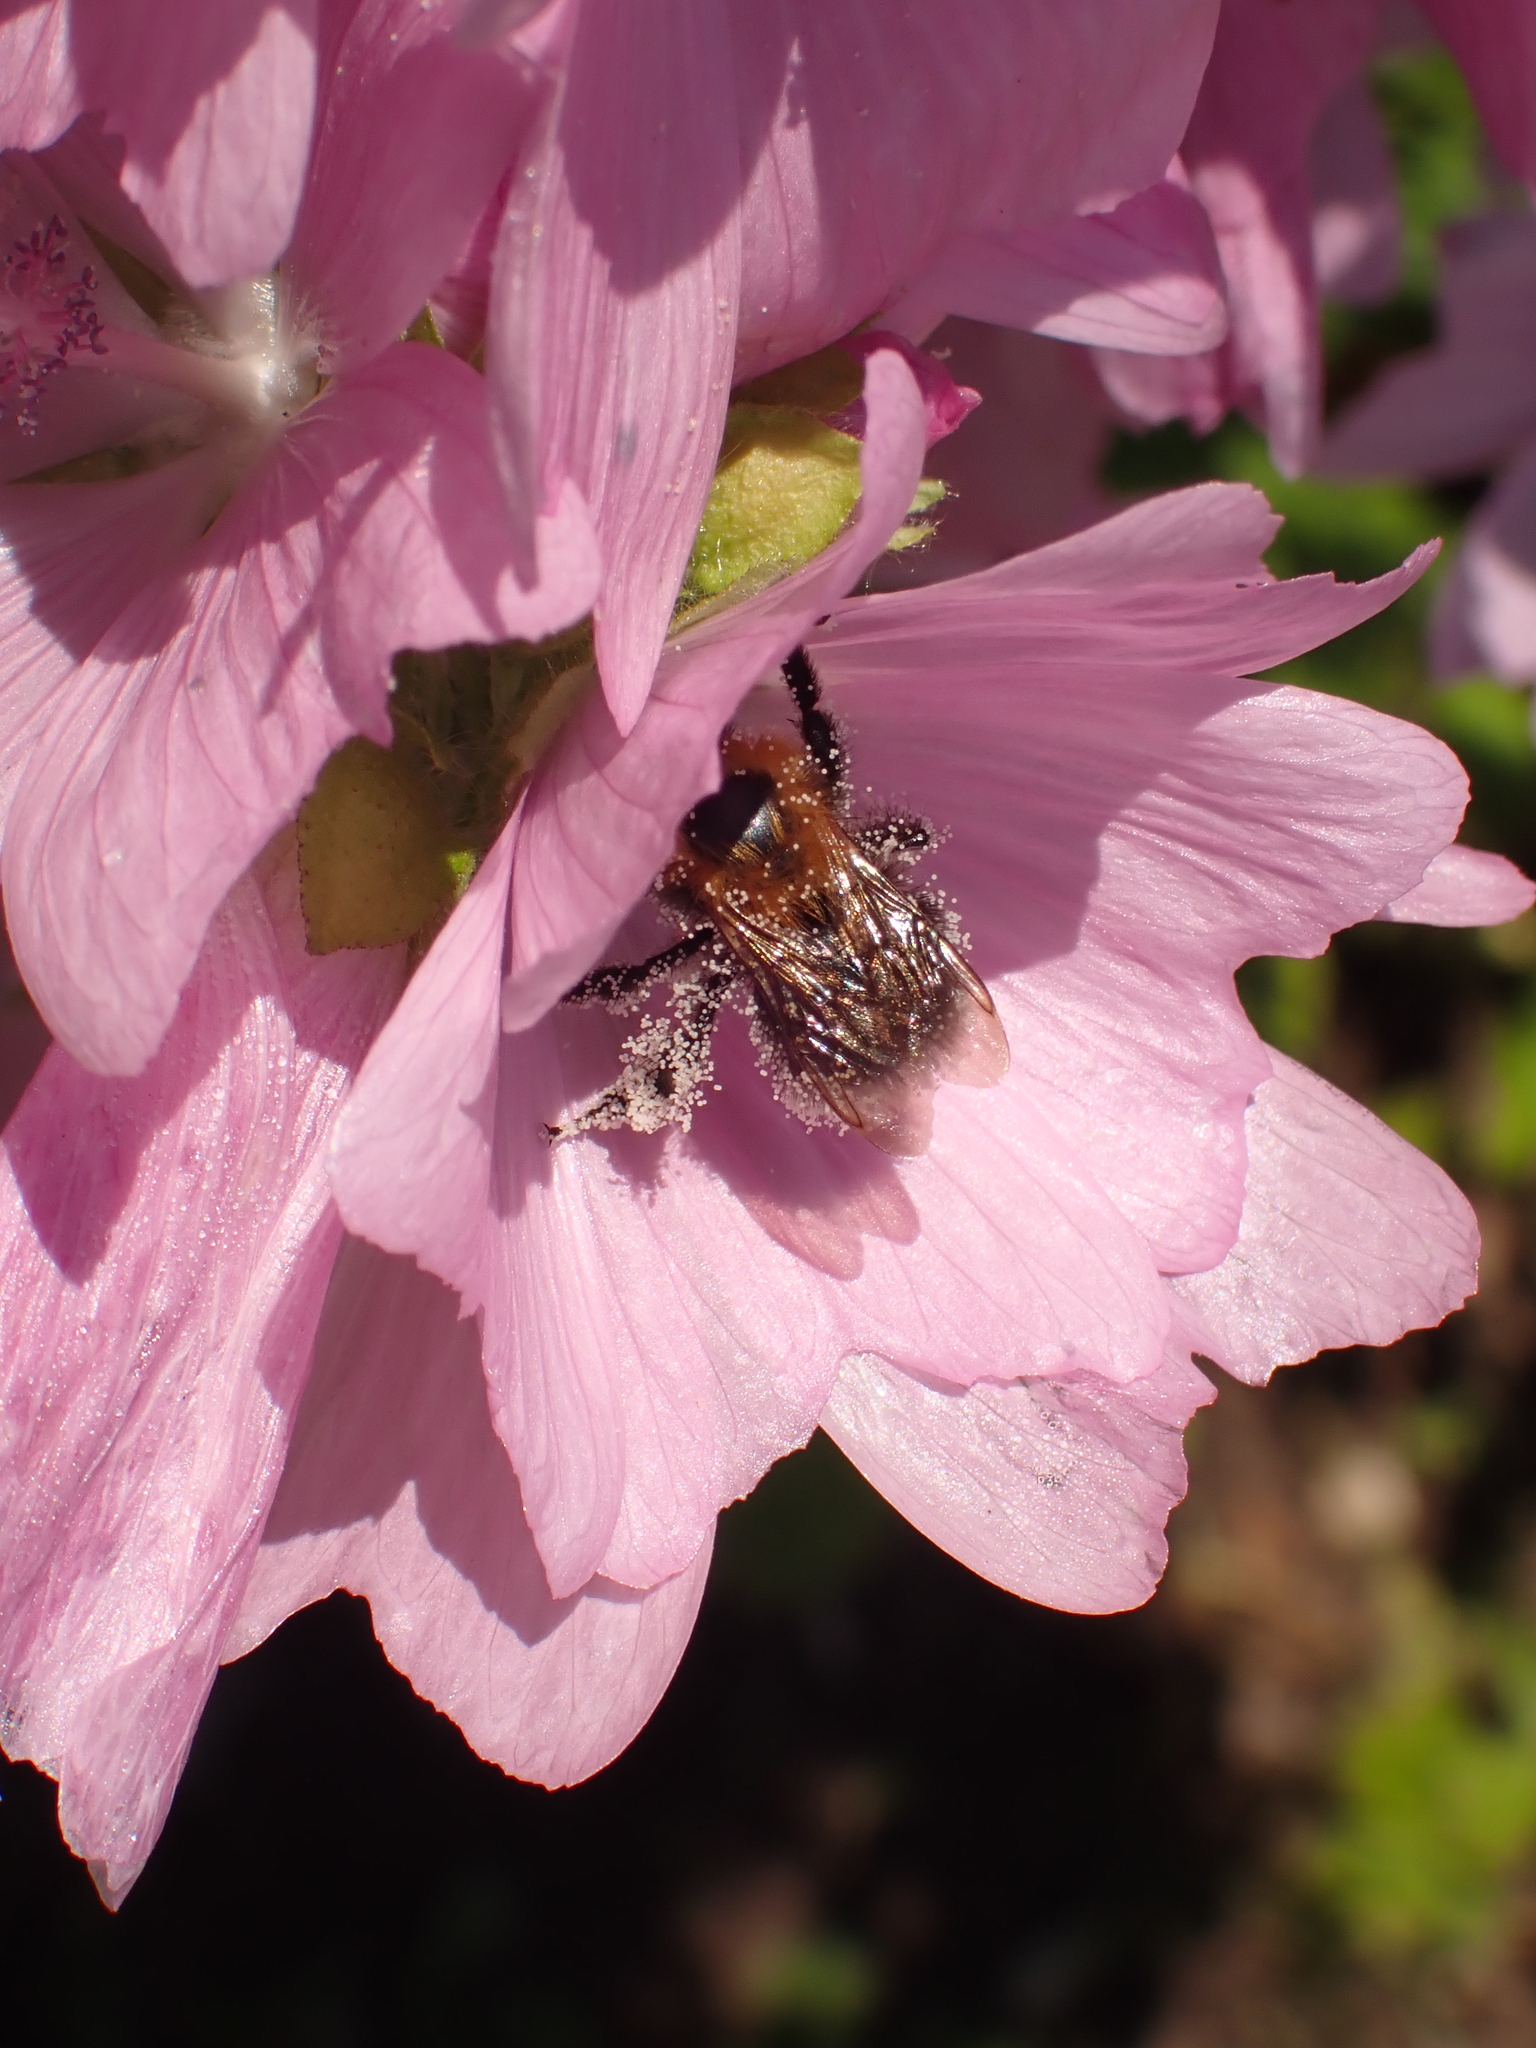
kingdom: Animalia
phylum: Arthropoda
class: Insecta
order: Hymenoptera
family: Apidae
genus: Bombus
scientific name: Bombus hypnorum
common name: New garden bumblebee
